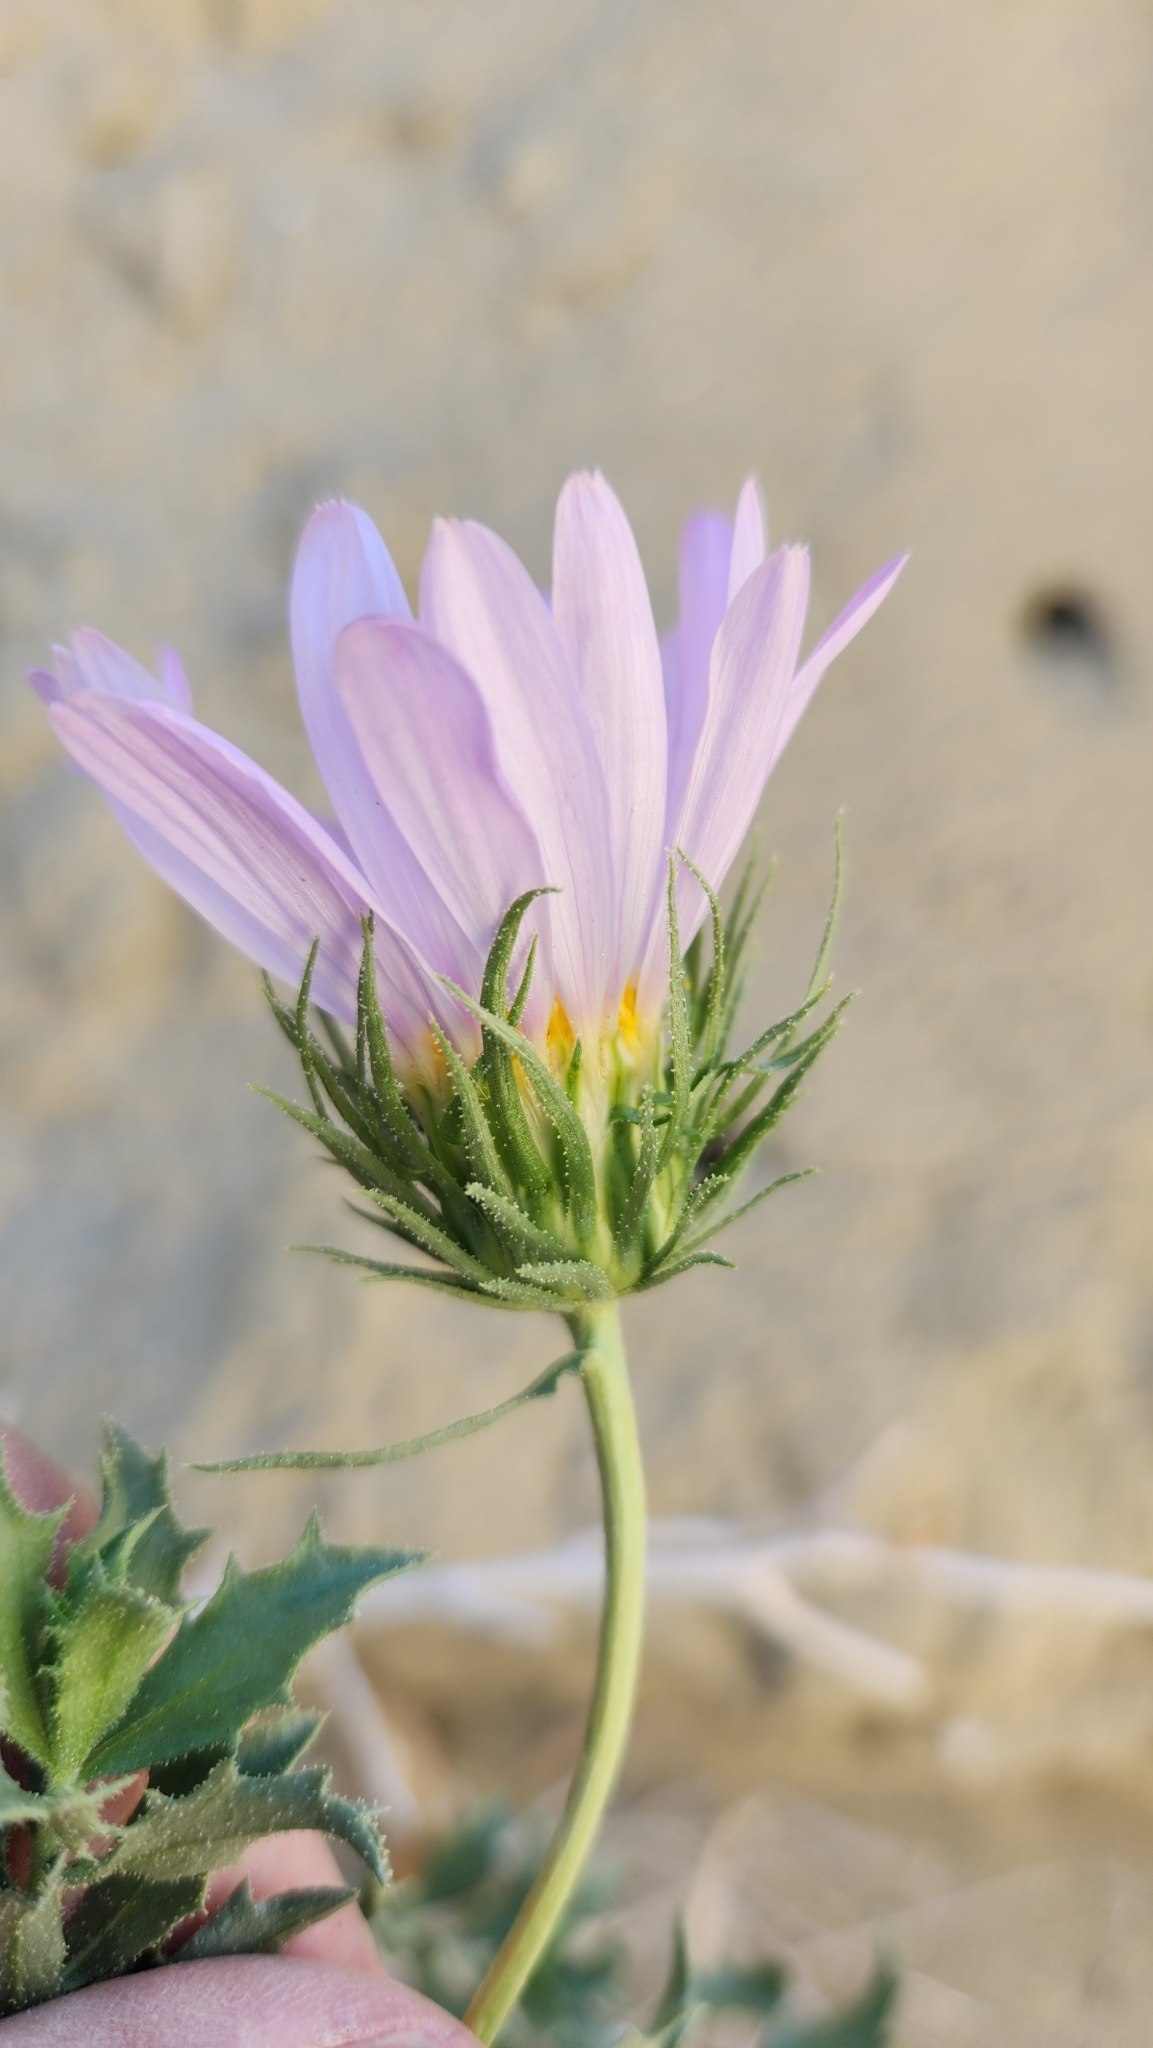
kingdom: Plantae
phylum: Tracheophyta
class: Magnoliopsida
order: Asterales
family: Asteraceae
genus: Xylorhiza
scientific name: Xylorhiza cognata
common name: Mecca woody-aster
